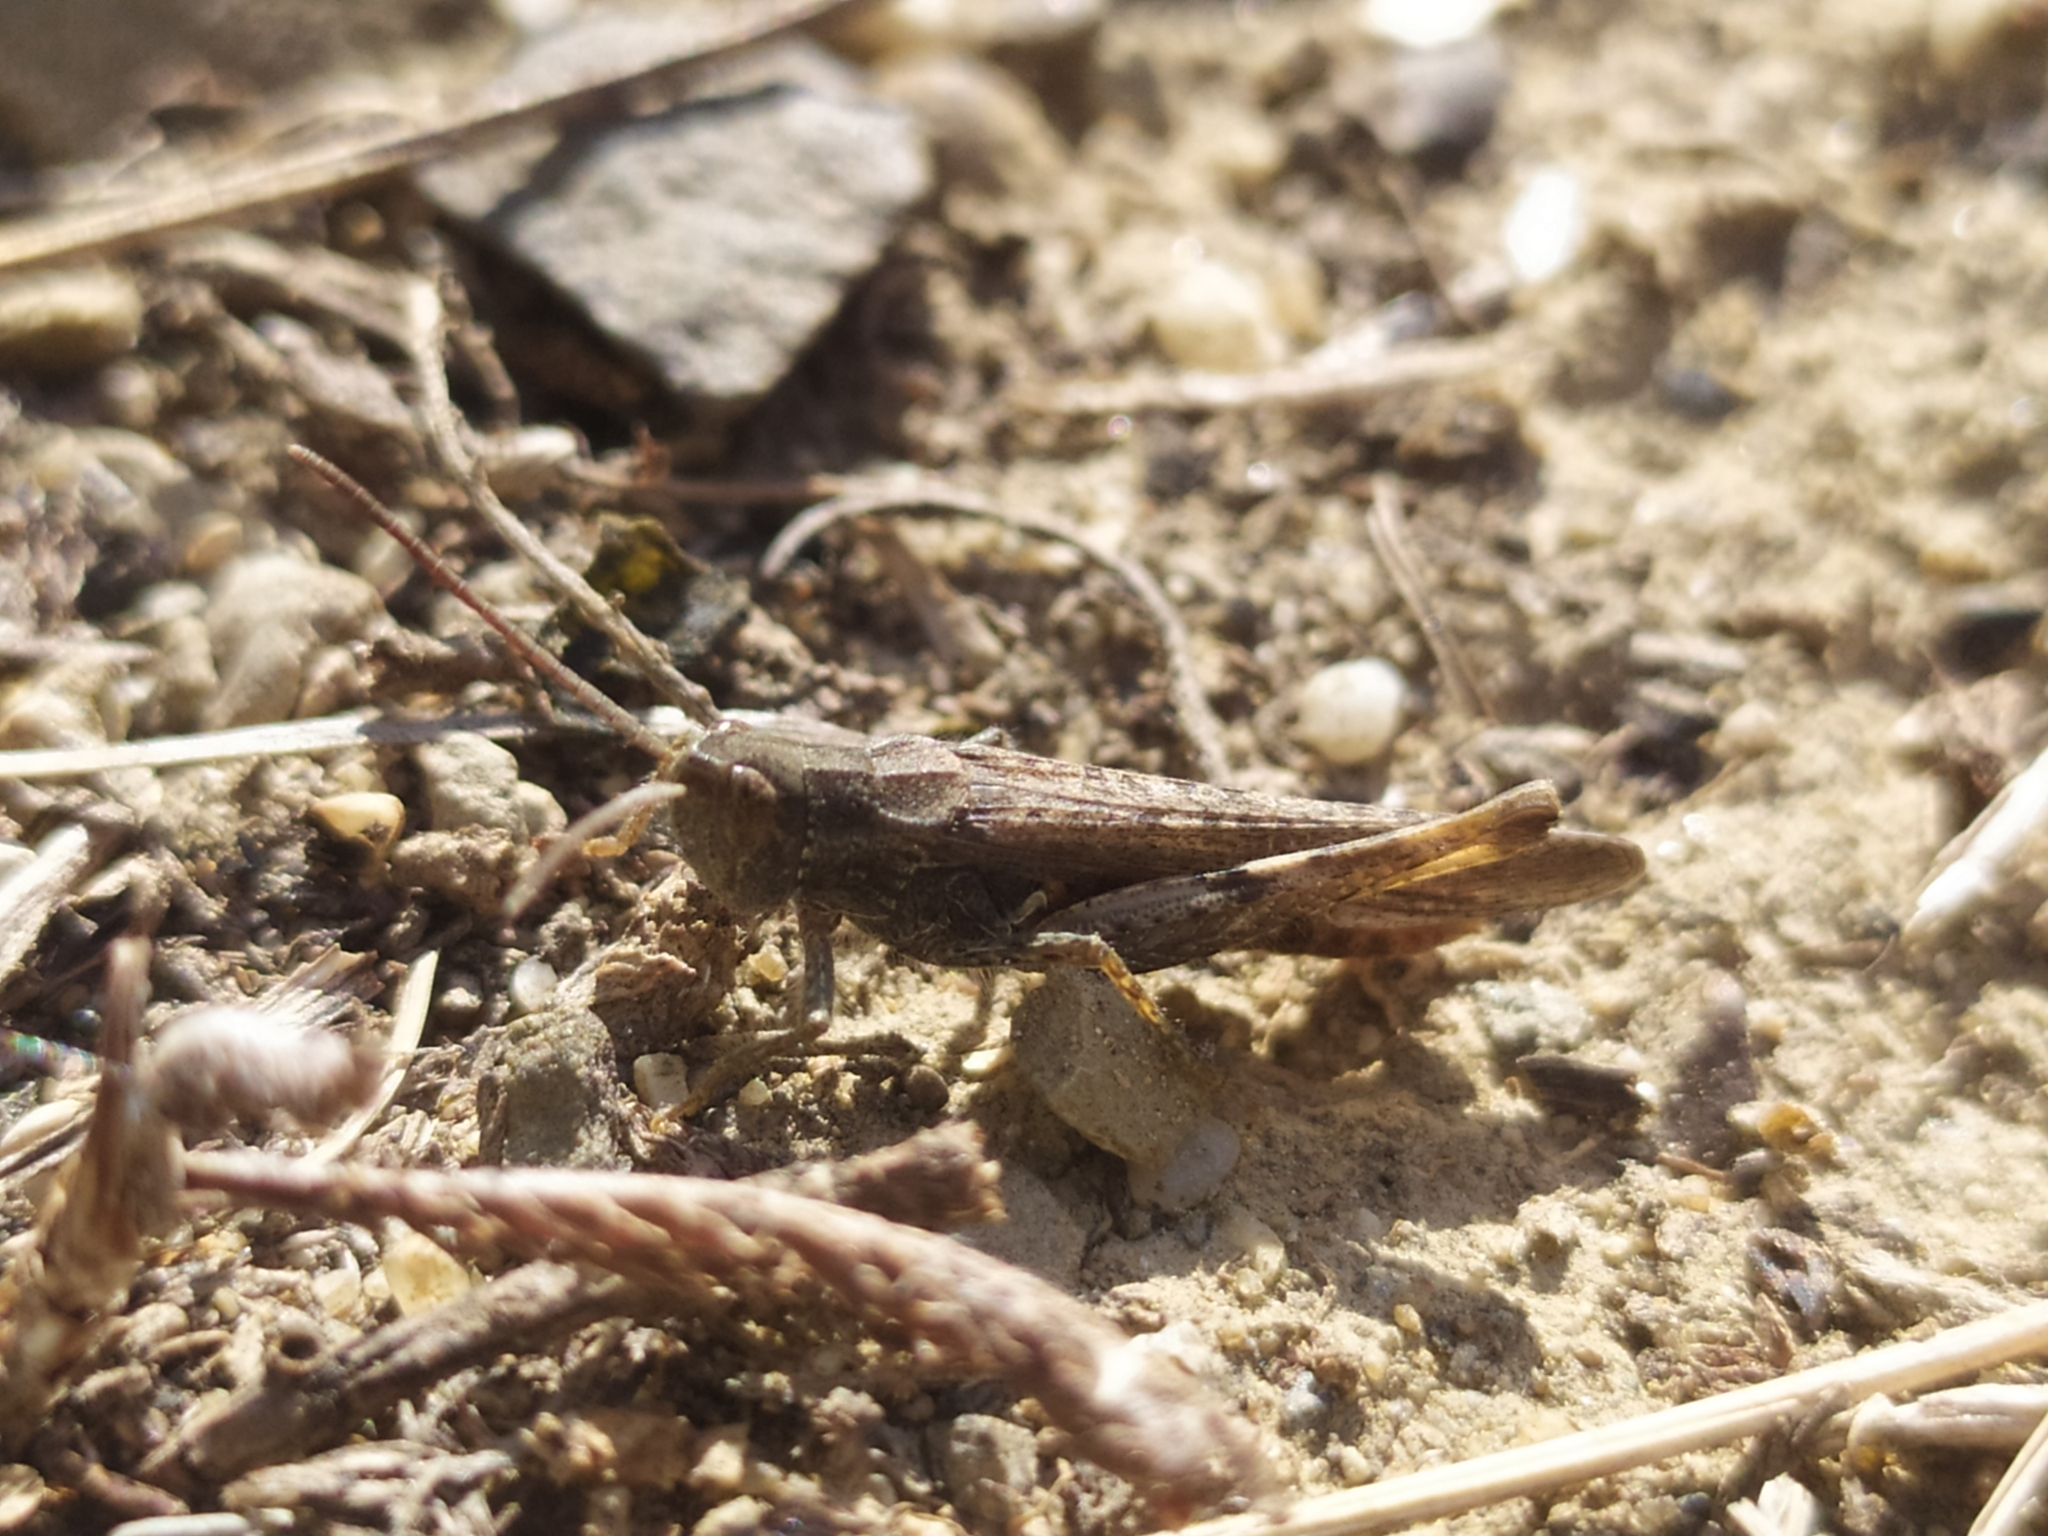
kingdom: Animalia
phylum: Arthropoda
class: Insecta
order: Orthoptera
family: Acrididae
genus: Chorthippus
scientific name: Chorthippus brunneus
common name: Field grasshopper
